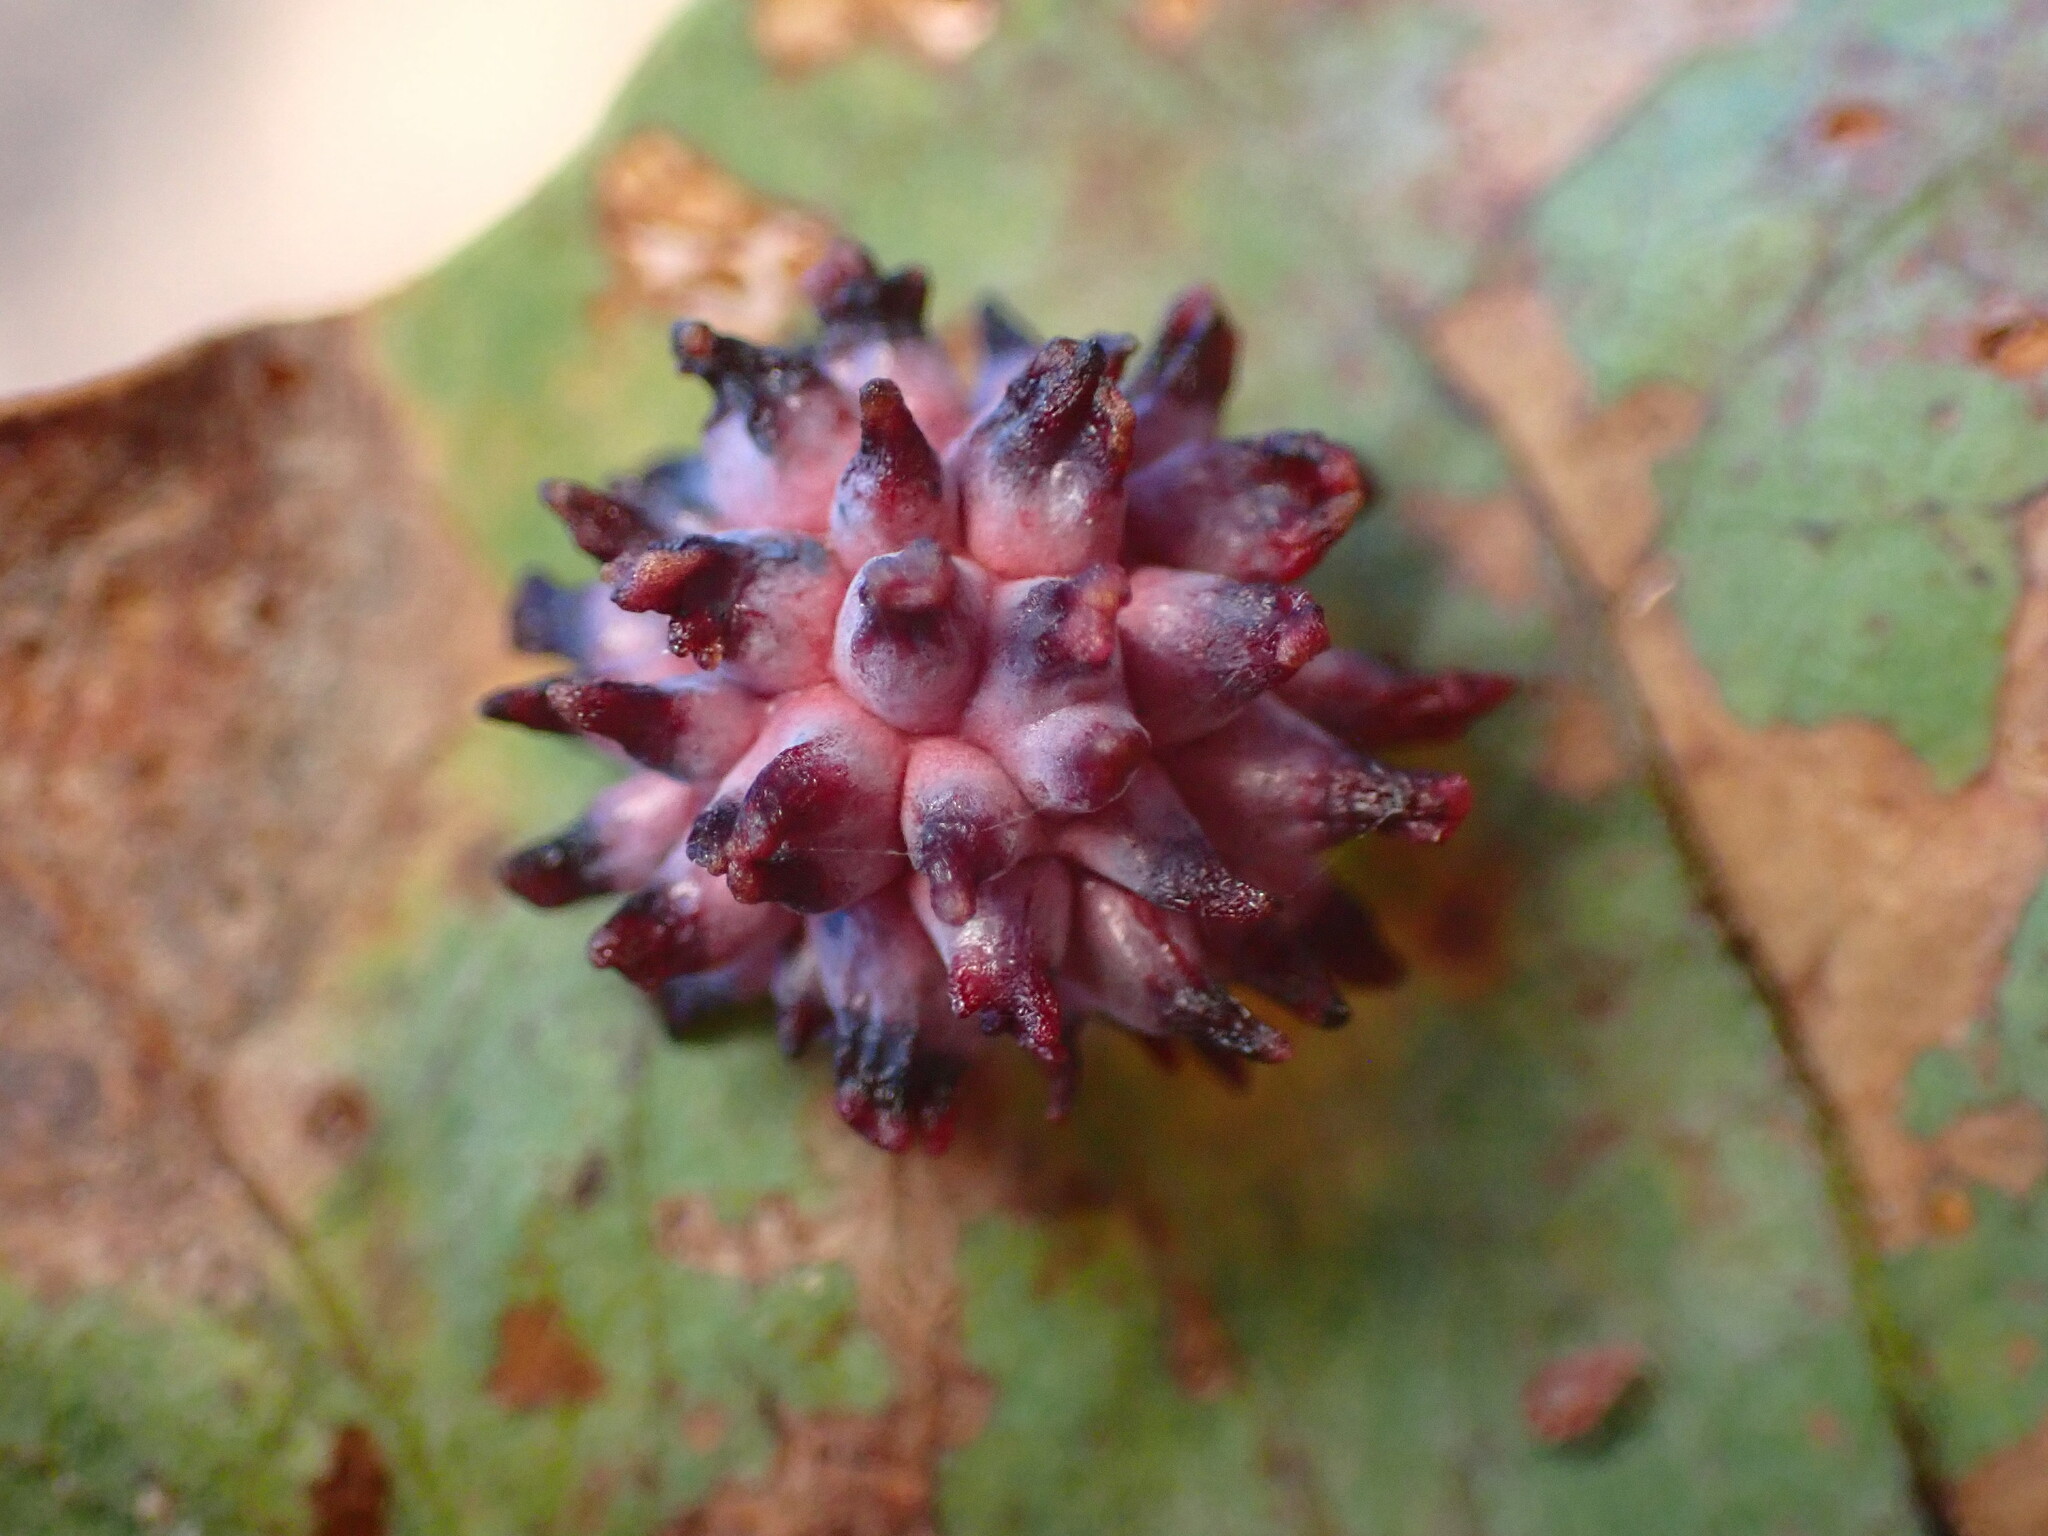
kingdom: Animalia
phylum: Arthropoda
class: Insecta
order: Hymenoptera
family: Cynipidae
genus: Cynips
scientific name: Cynips
